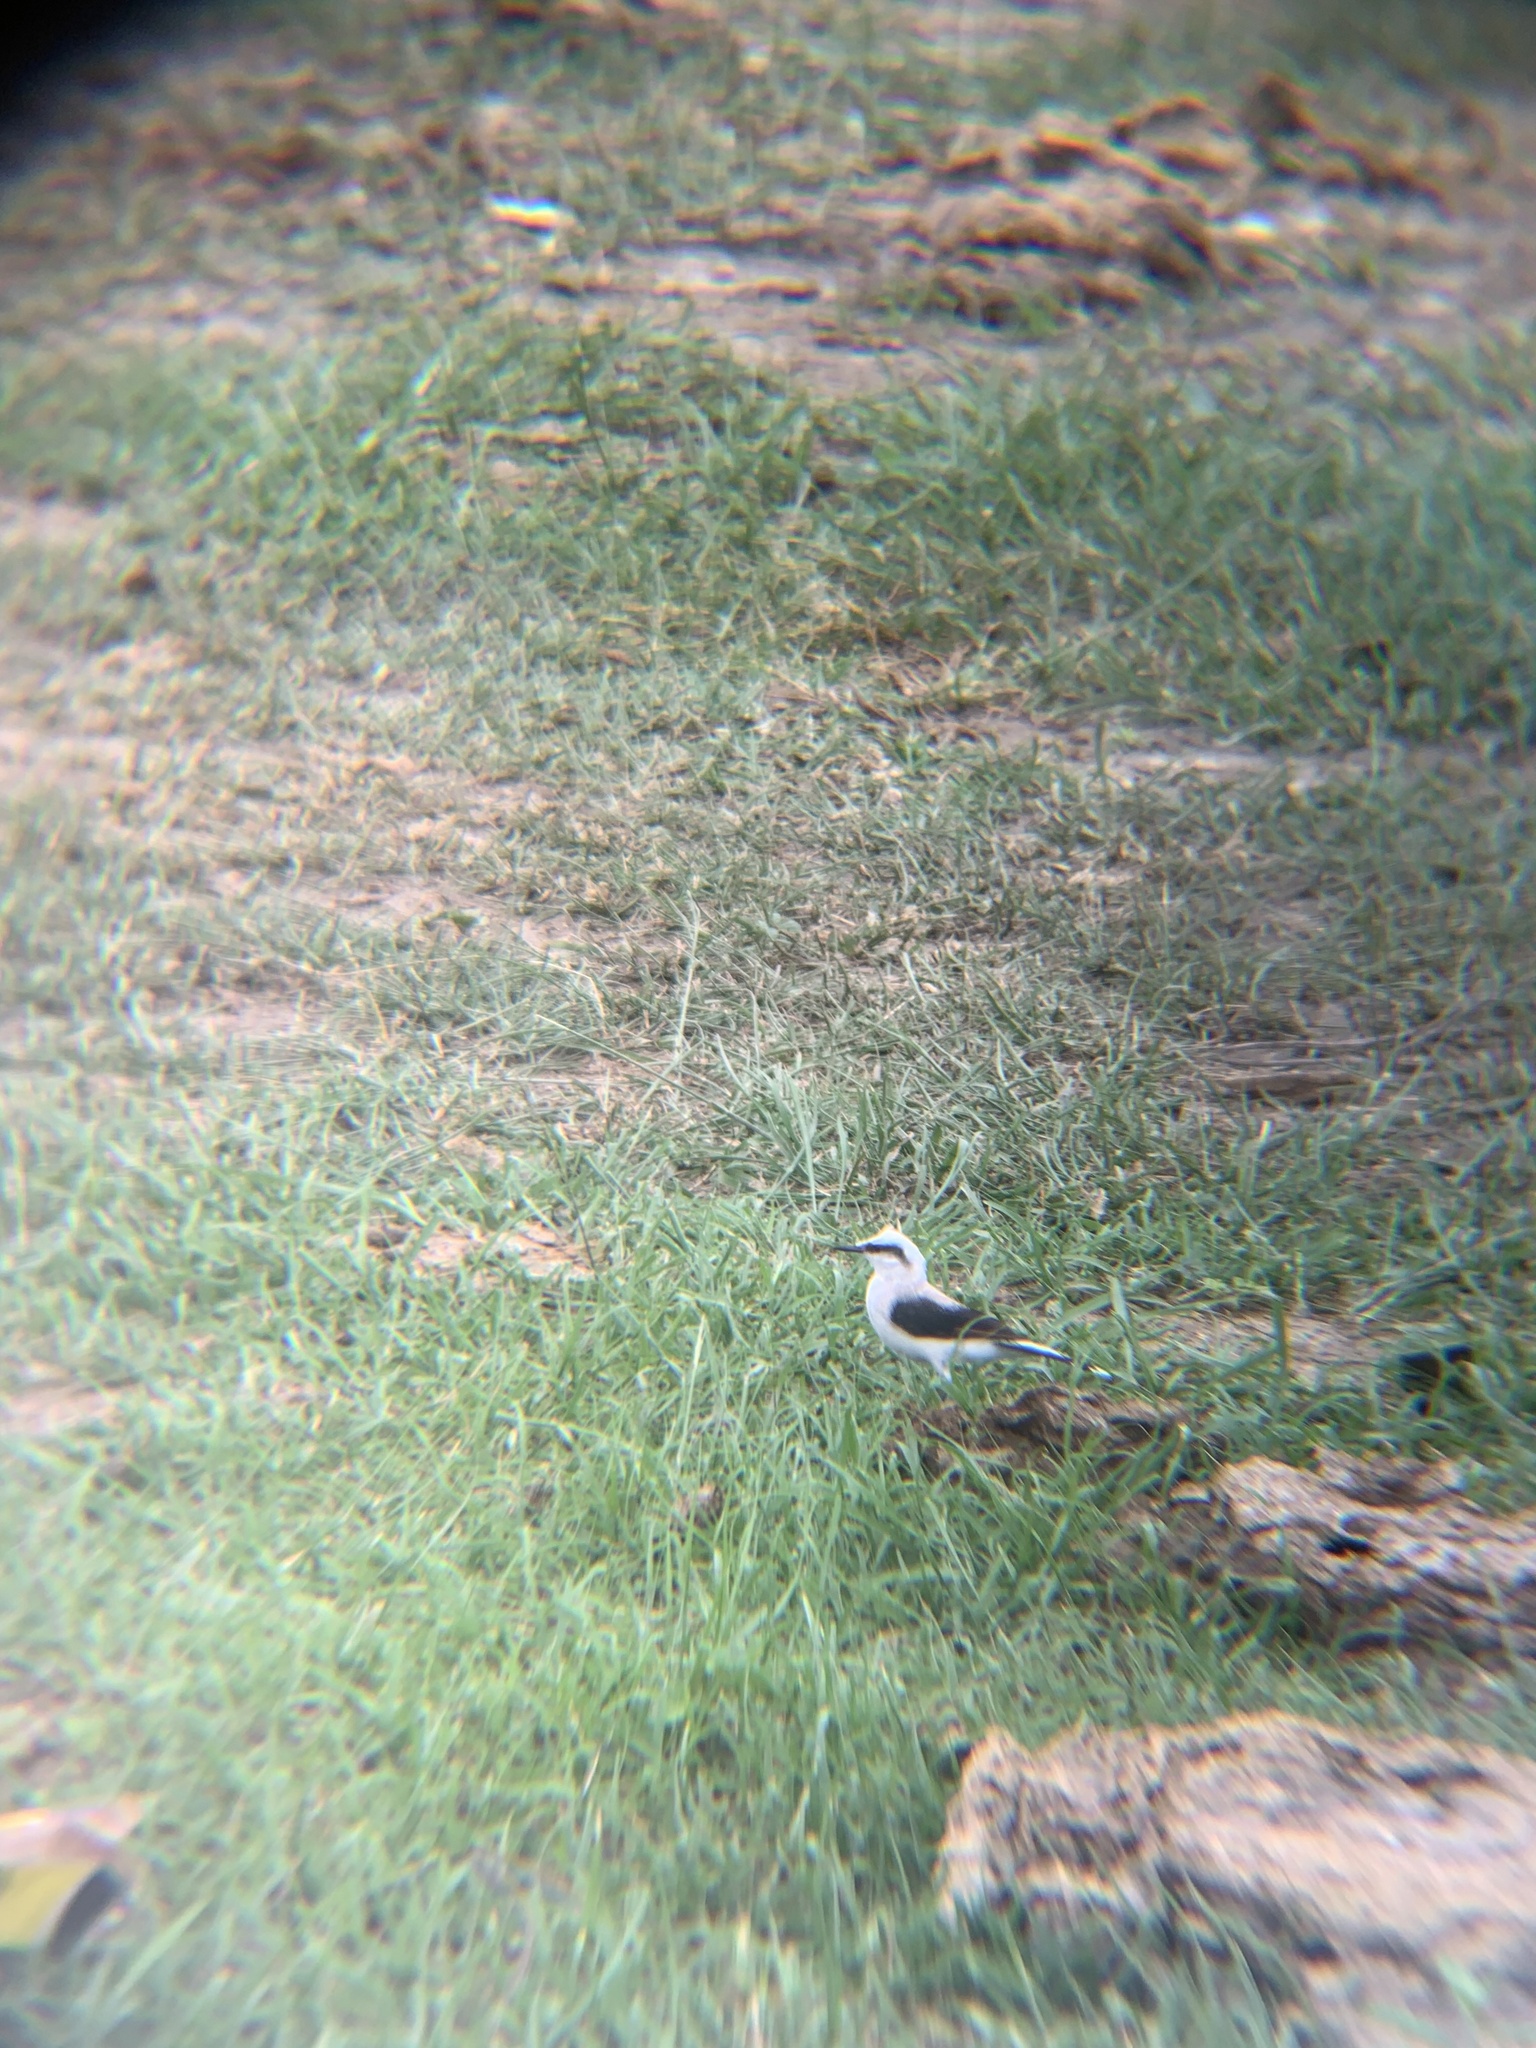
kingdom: Animalia
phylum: Chordata
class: Aves
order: Passeriformes
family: Tyrannidae
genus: Fluvicola
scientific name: Fluvicola nengeta
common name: Masked water tyrant
